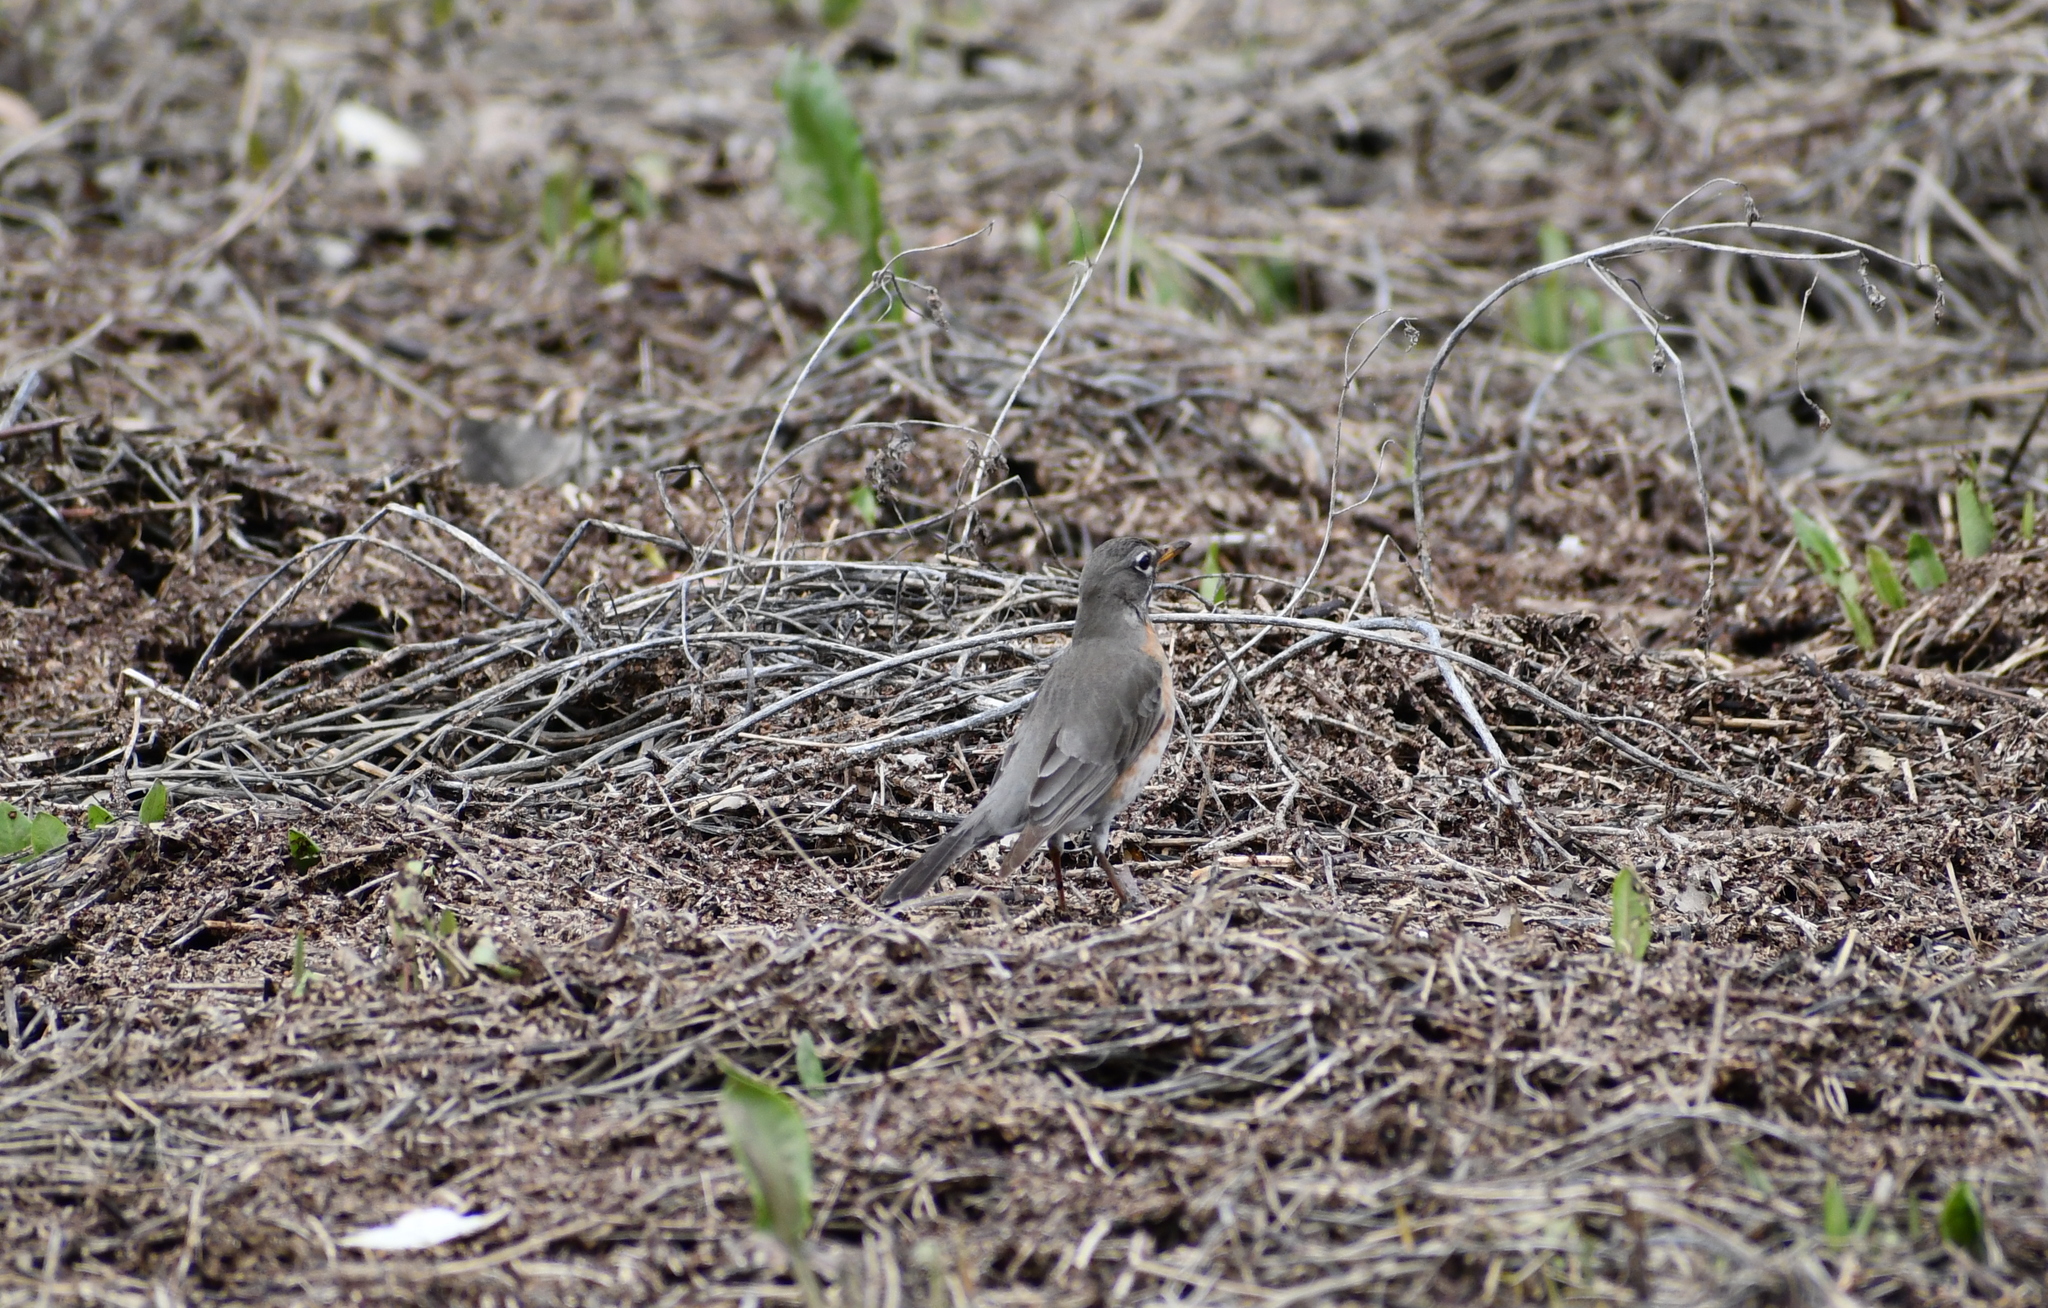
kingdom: Animalia
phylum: Chordata
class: Aves
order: Passeriformes
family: Turdidae
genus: Turdus
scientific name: Turdus migratorius
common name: American robin
